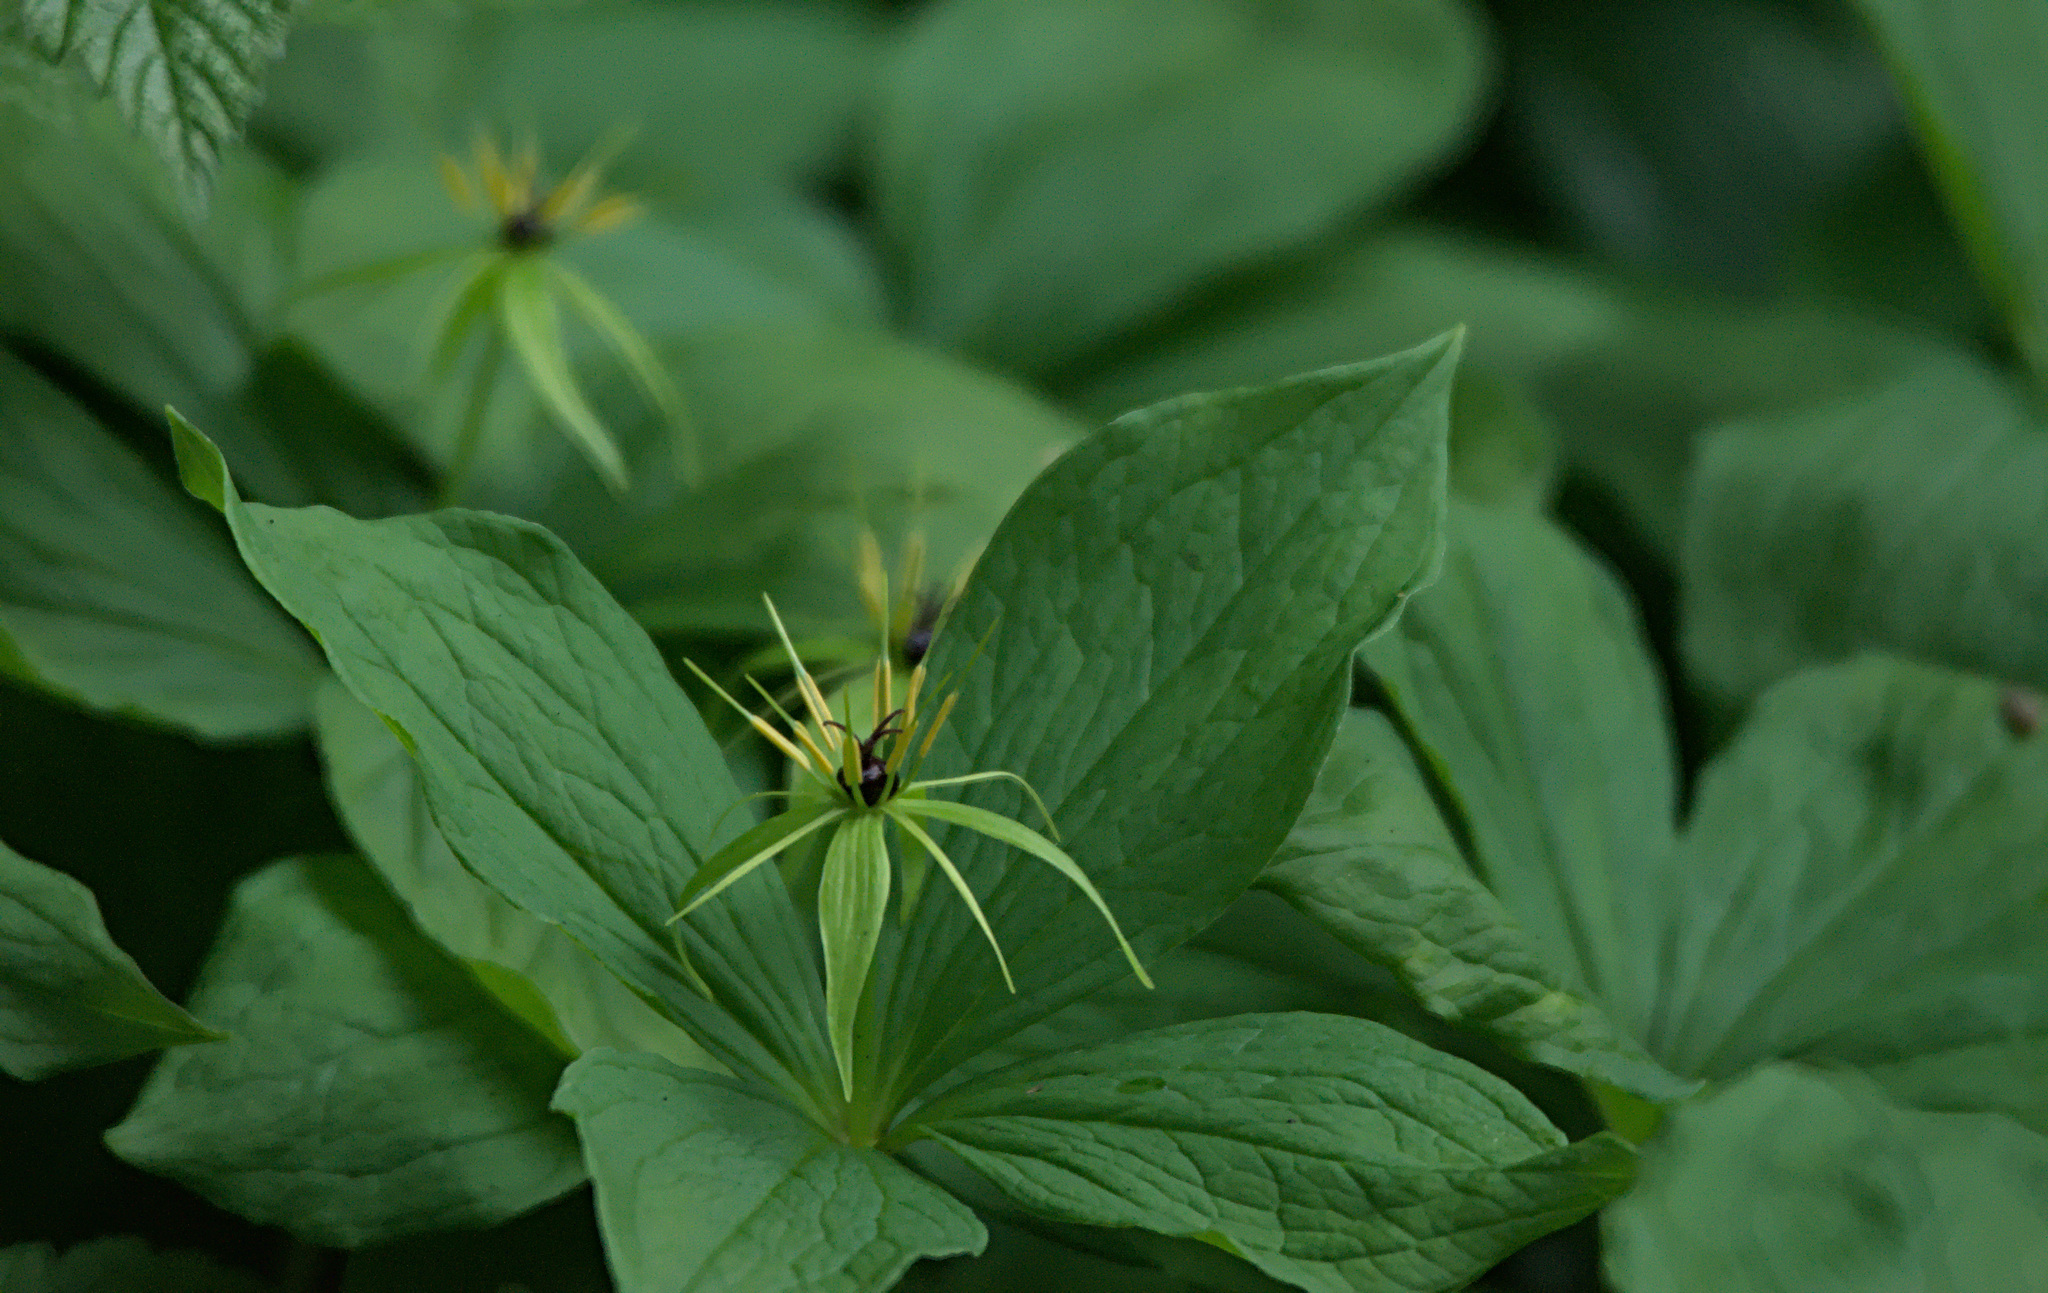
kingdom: Plantae
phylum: Tracheophyta
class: Liliopsida
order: Liliales
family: Melanthiaceae
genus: Paris
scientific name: Paris quadrifolia
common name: Herb-paris
